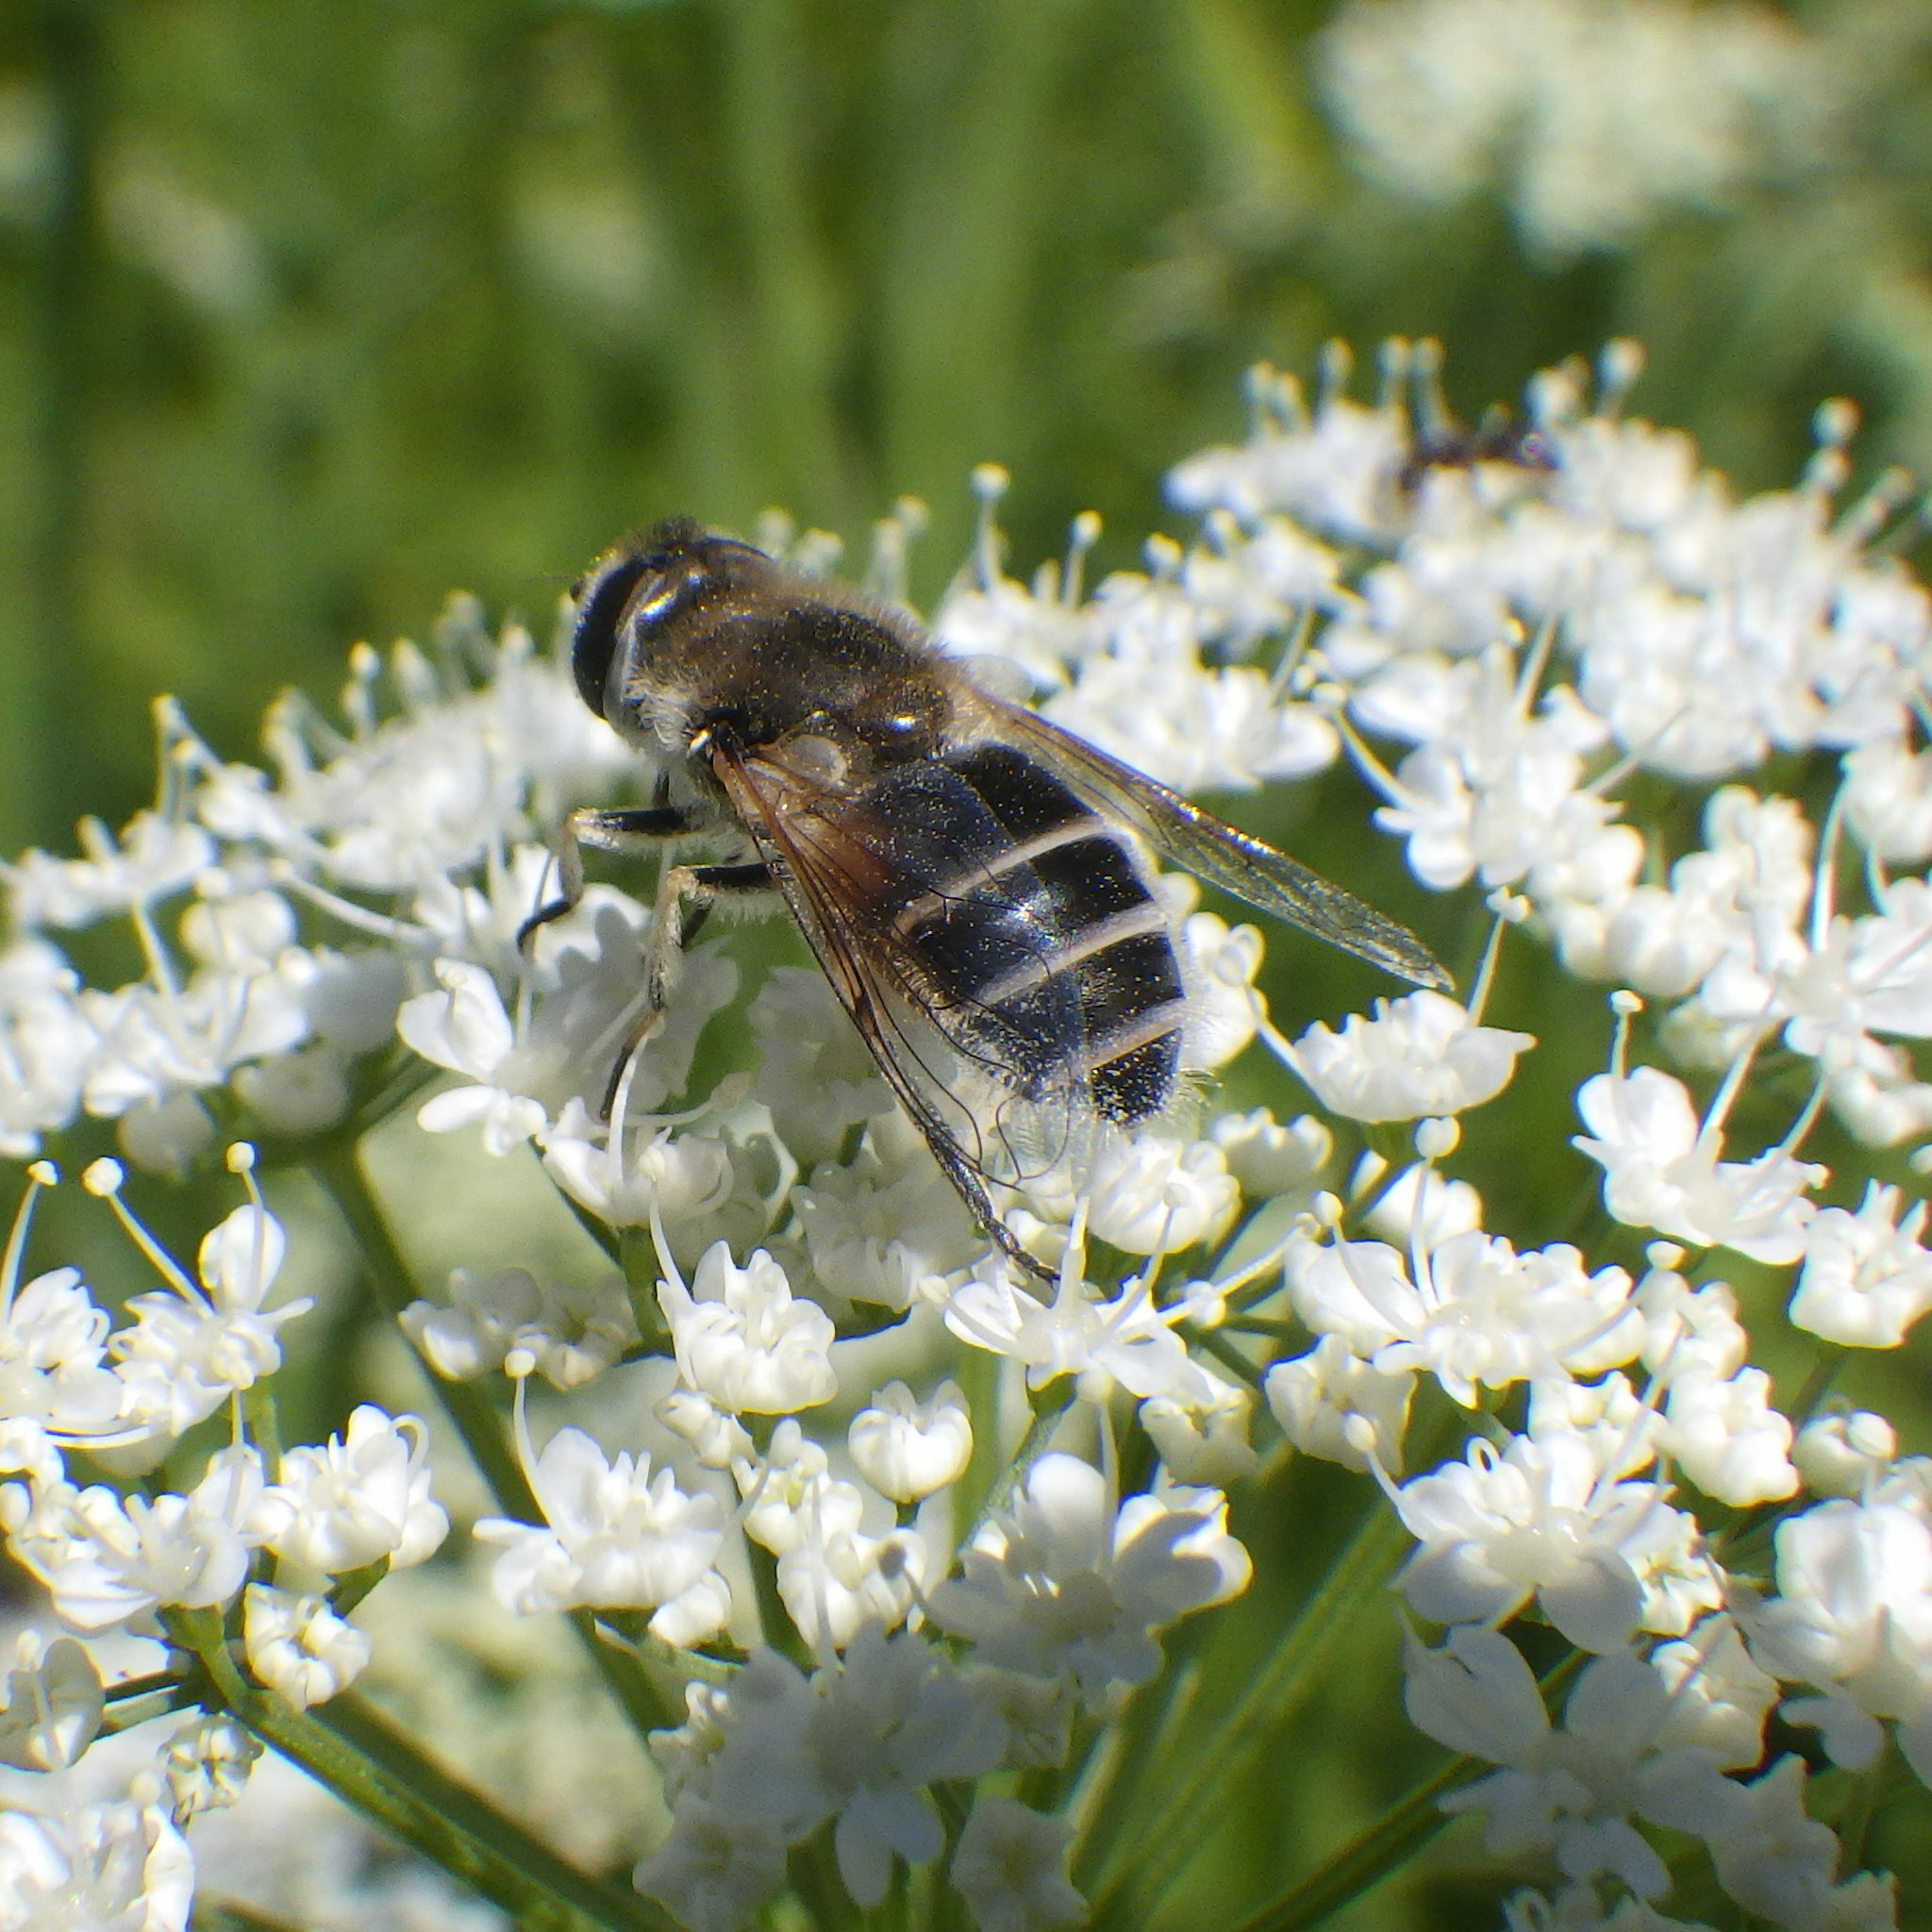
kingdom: Animalia
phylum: Arthropoda
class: Insecta
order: Diptera
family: Syrphidae
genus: Eristalis
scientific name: Eristalis arbustorum
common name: Hover fly
